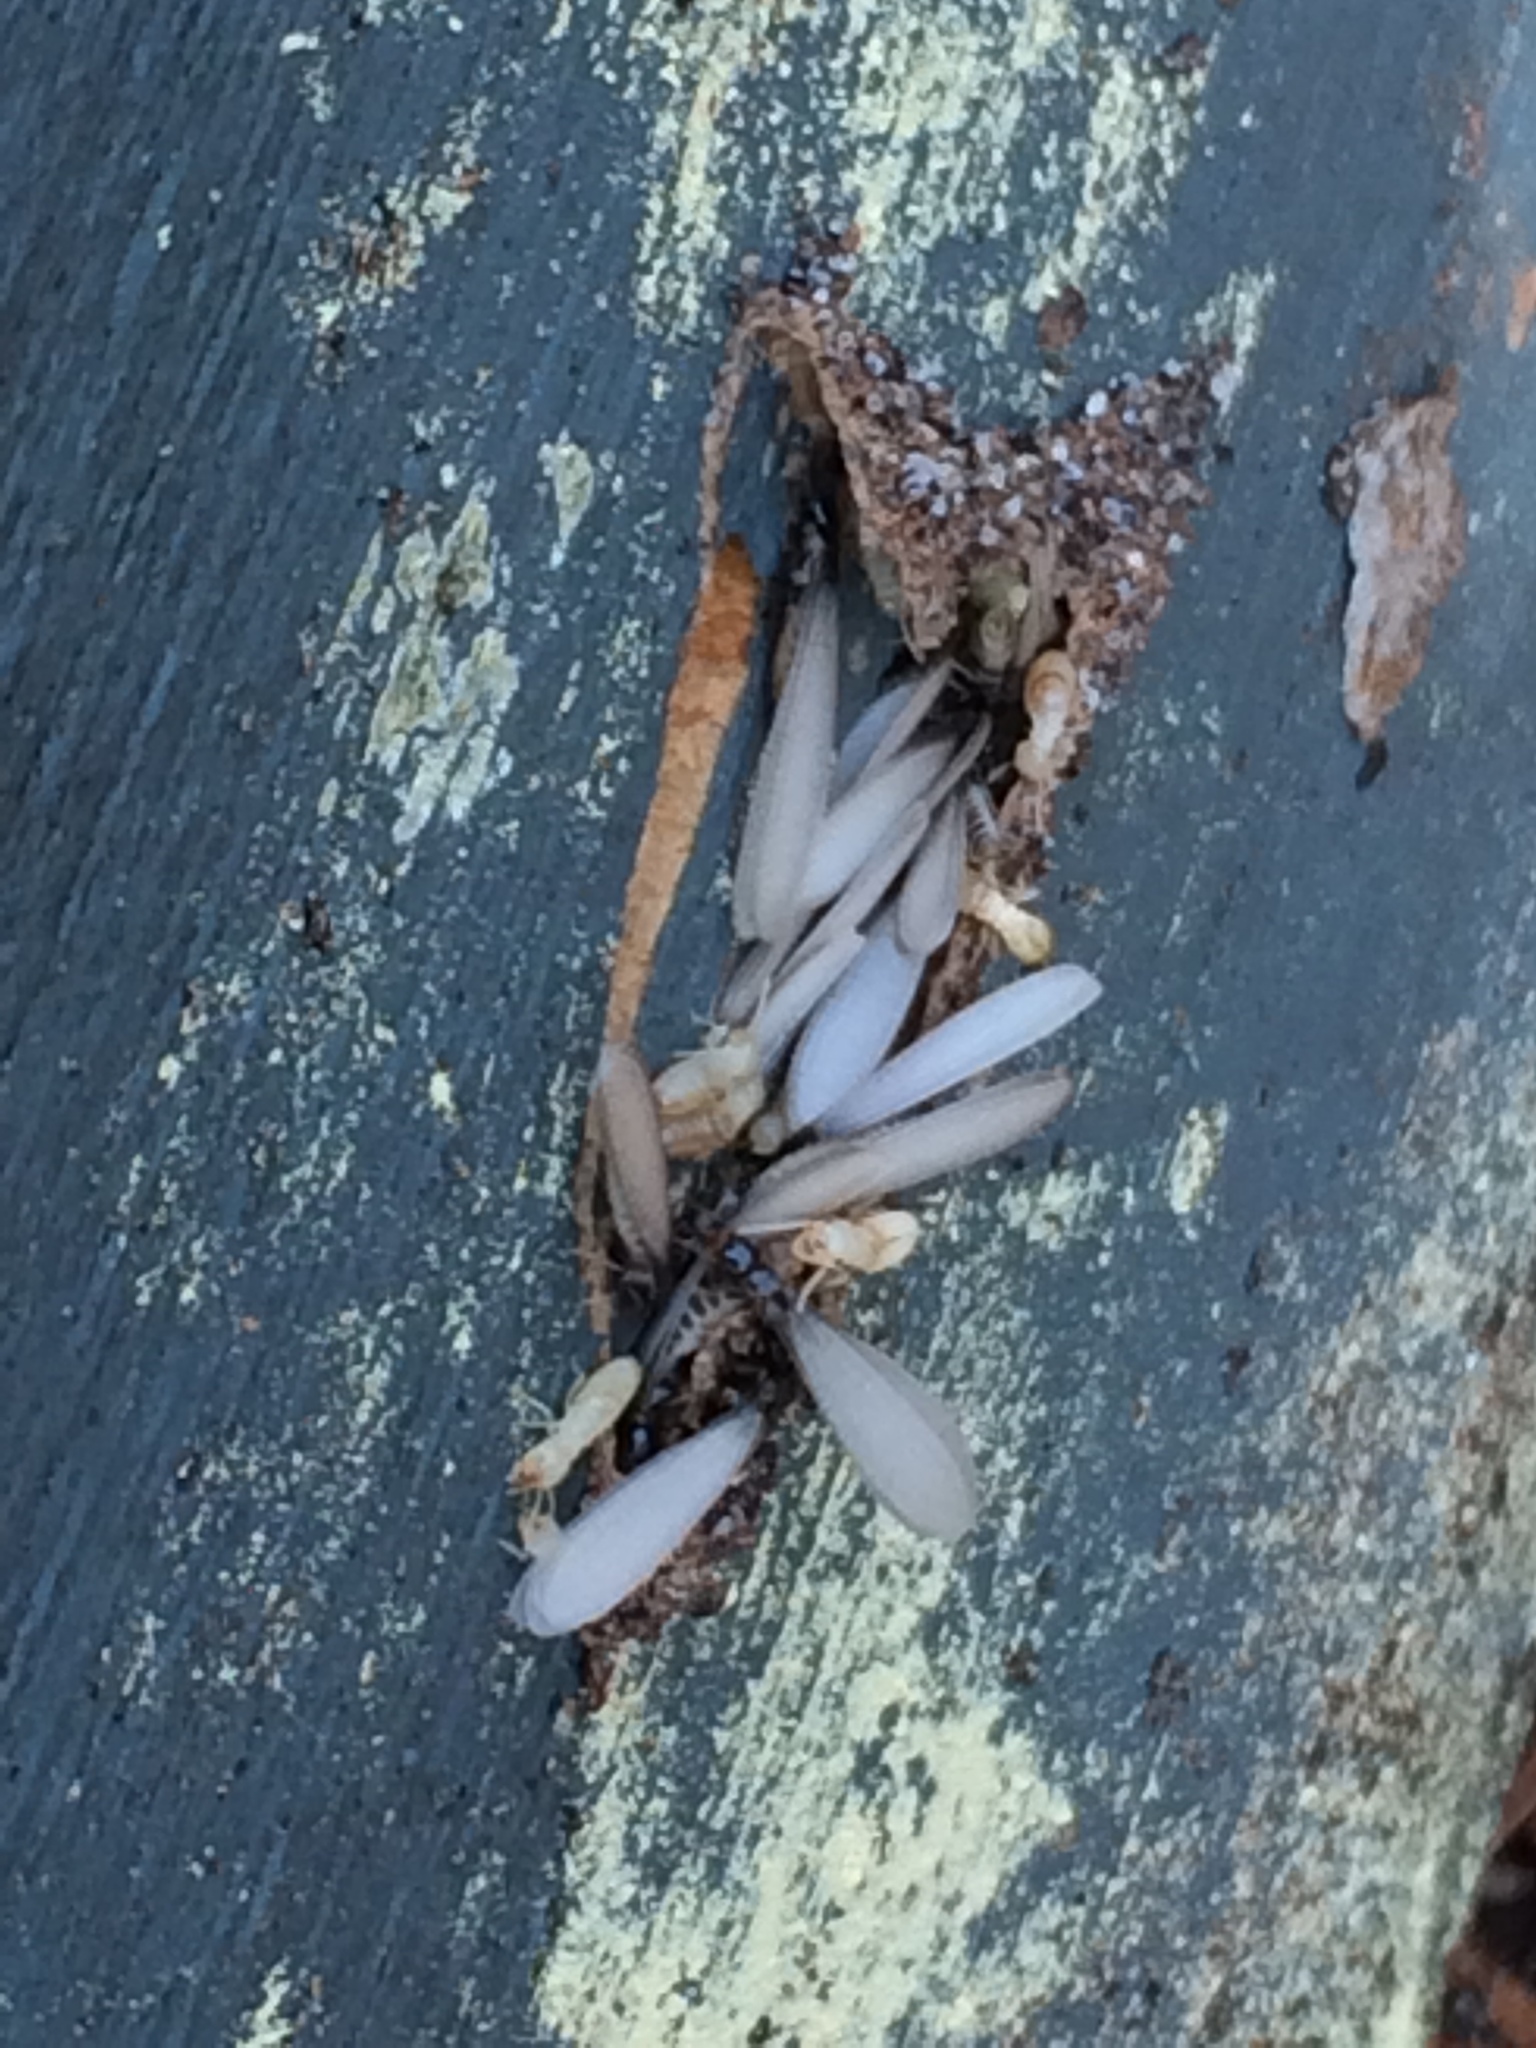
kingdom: Animalia
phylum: Arthropoda
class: Insecta
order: Blattodea
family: Rhinotermitidae
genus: Reticulitermes
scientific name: Reticulitermes flavipes
